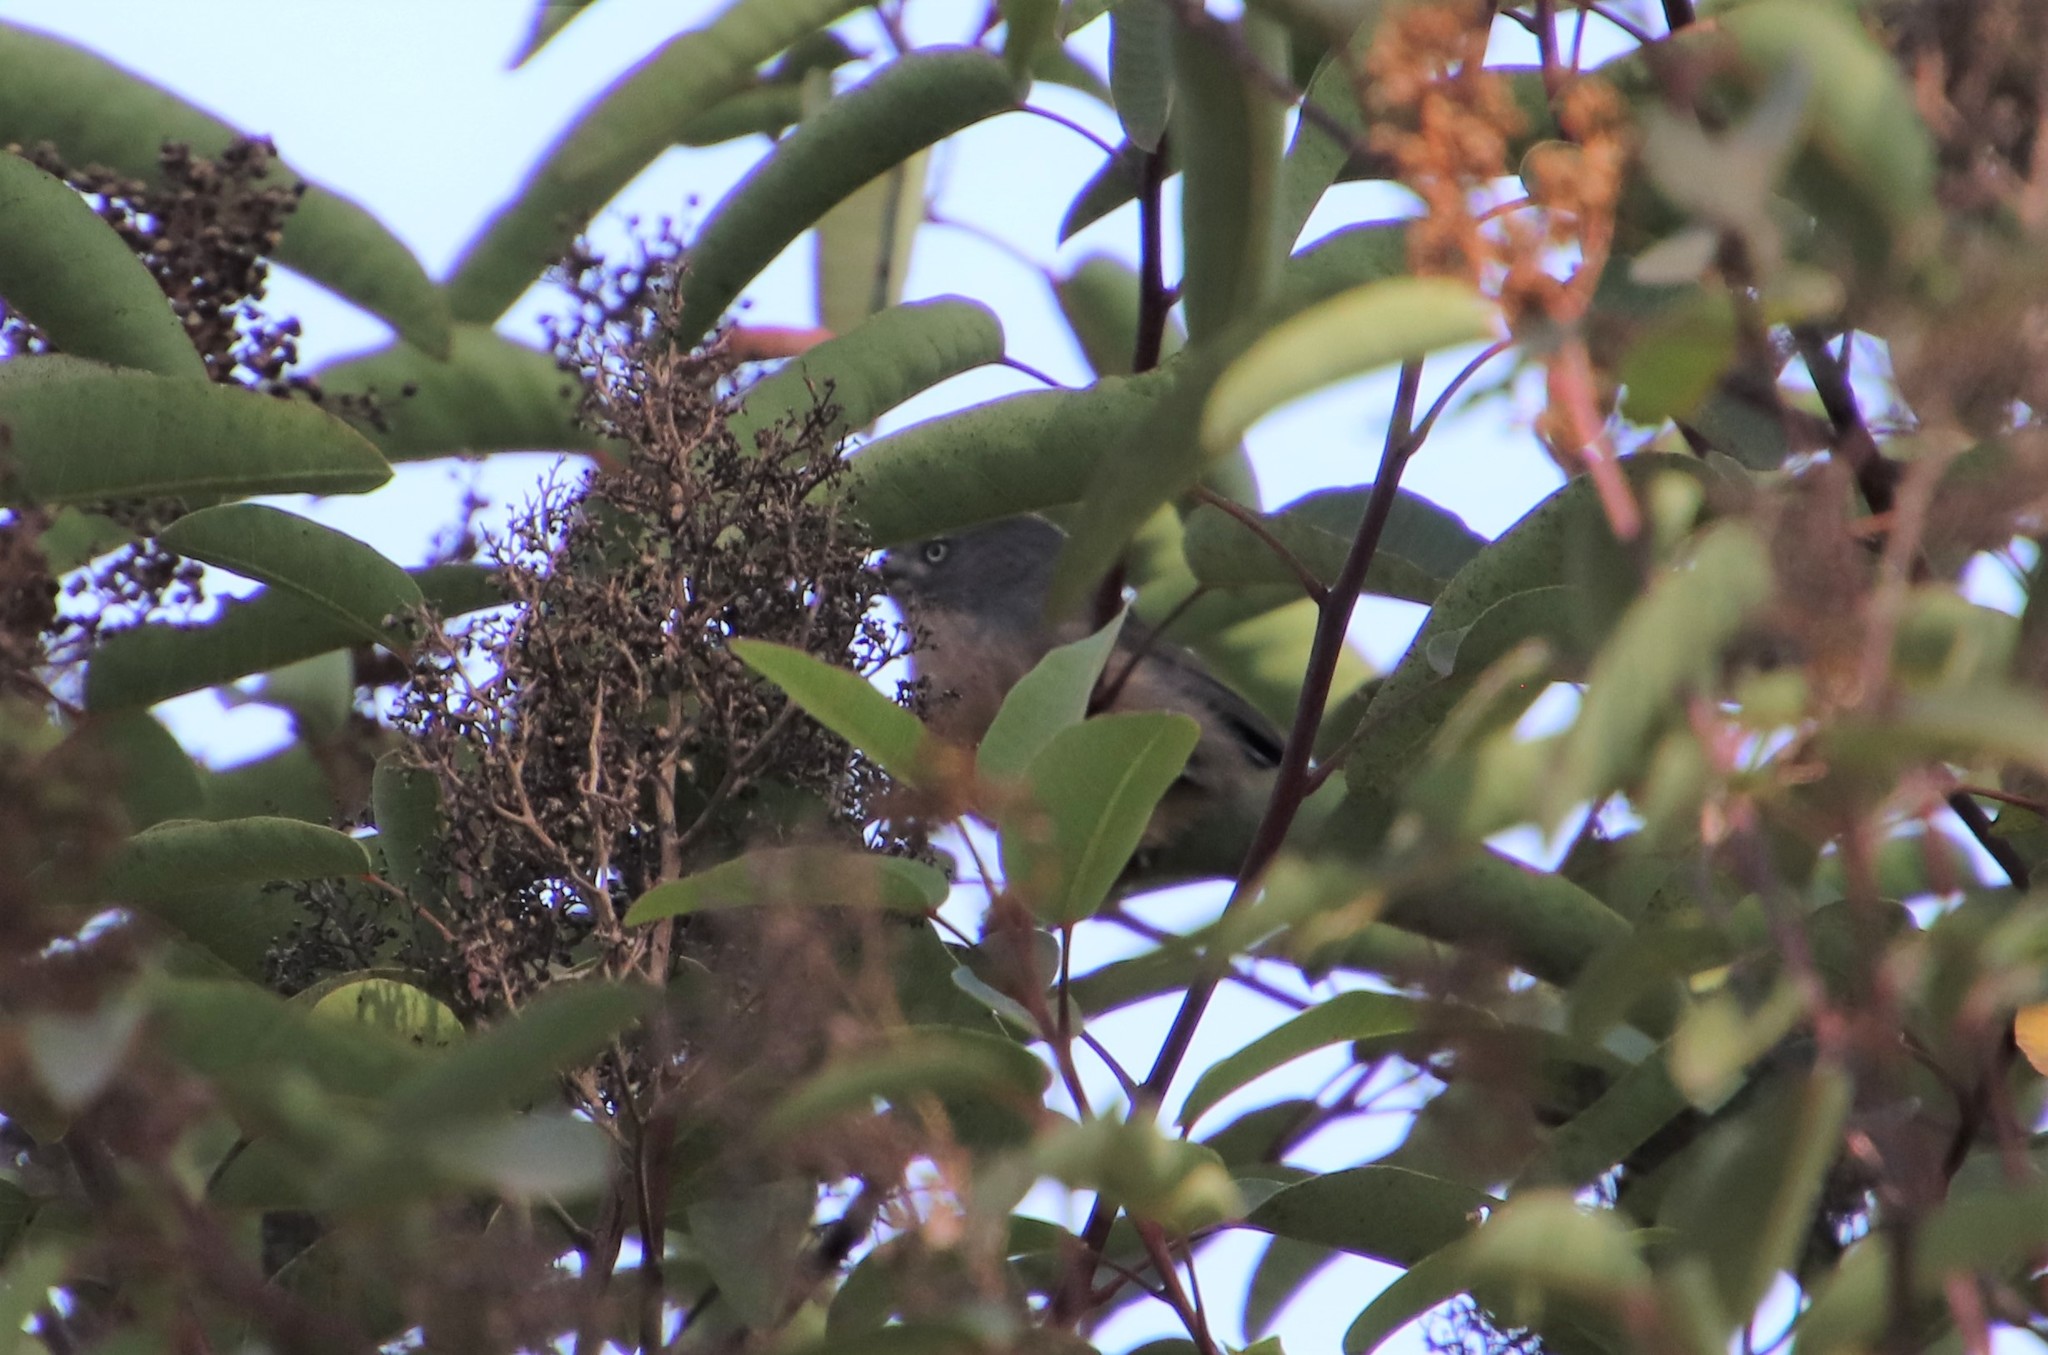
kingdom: Animalia
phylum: Chordata
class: Aves
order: Passeriformes
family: Sylviidae
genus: Chamaea
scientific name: Chamaea fasciata
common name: Wrentit
